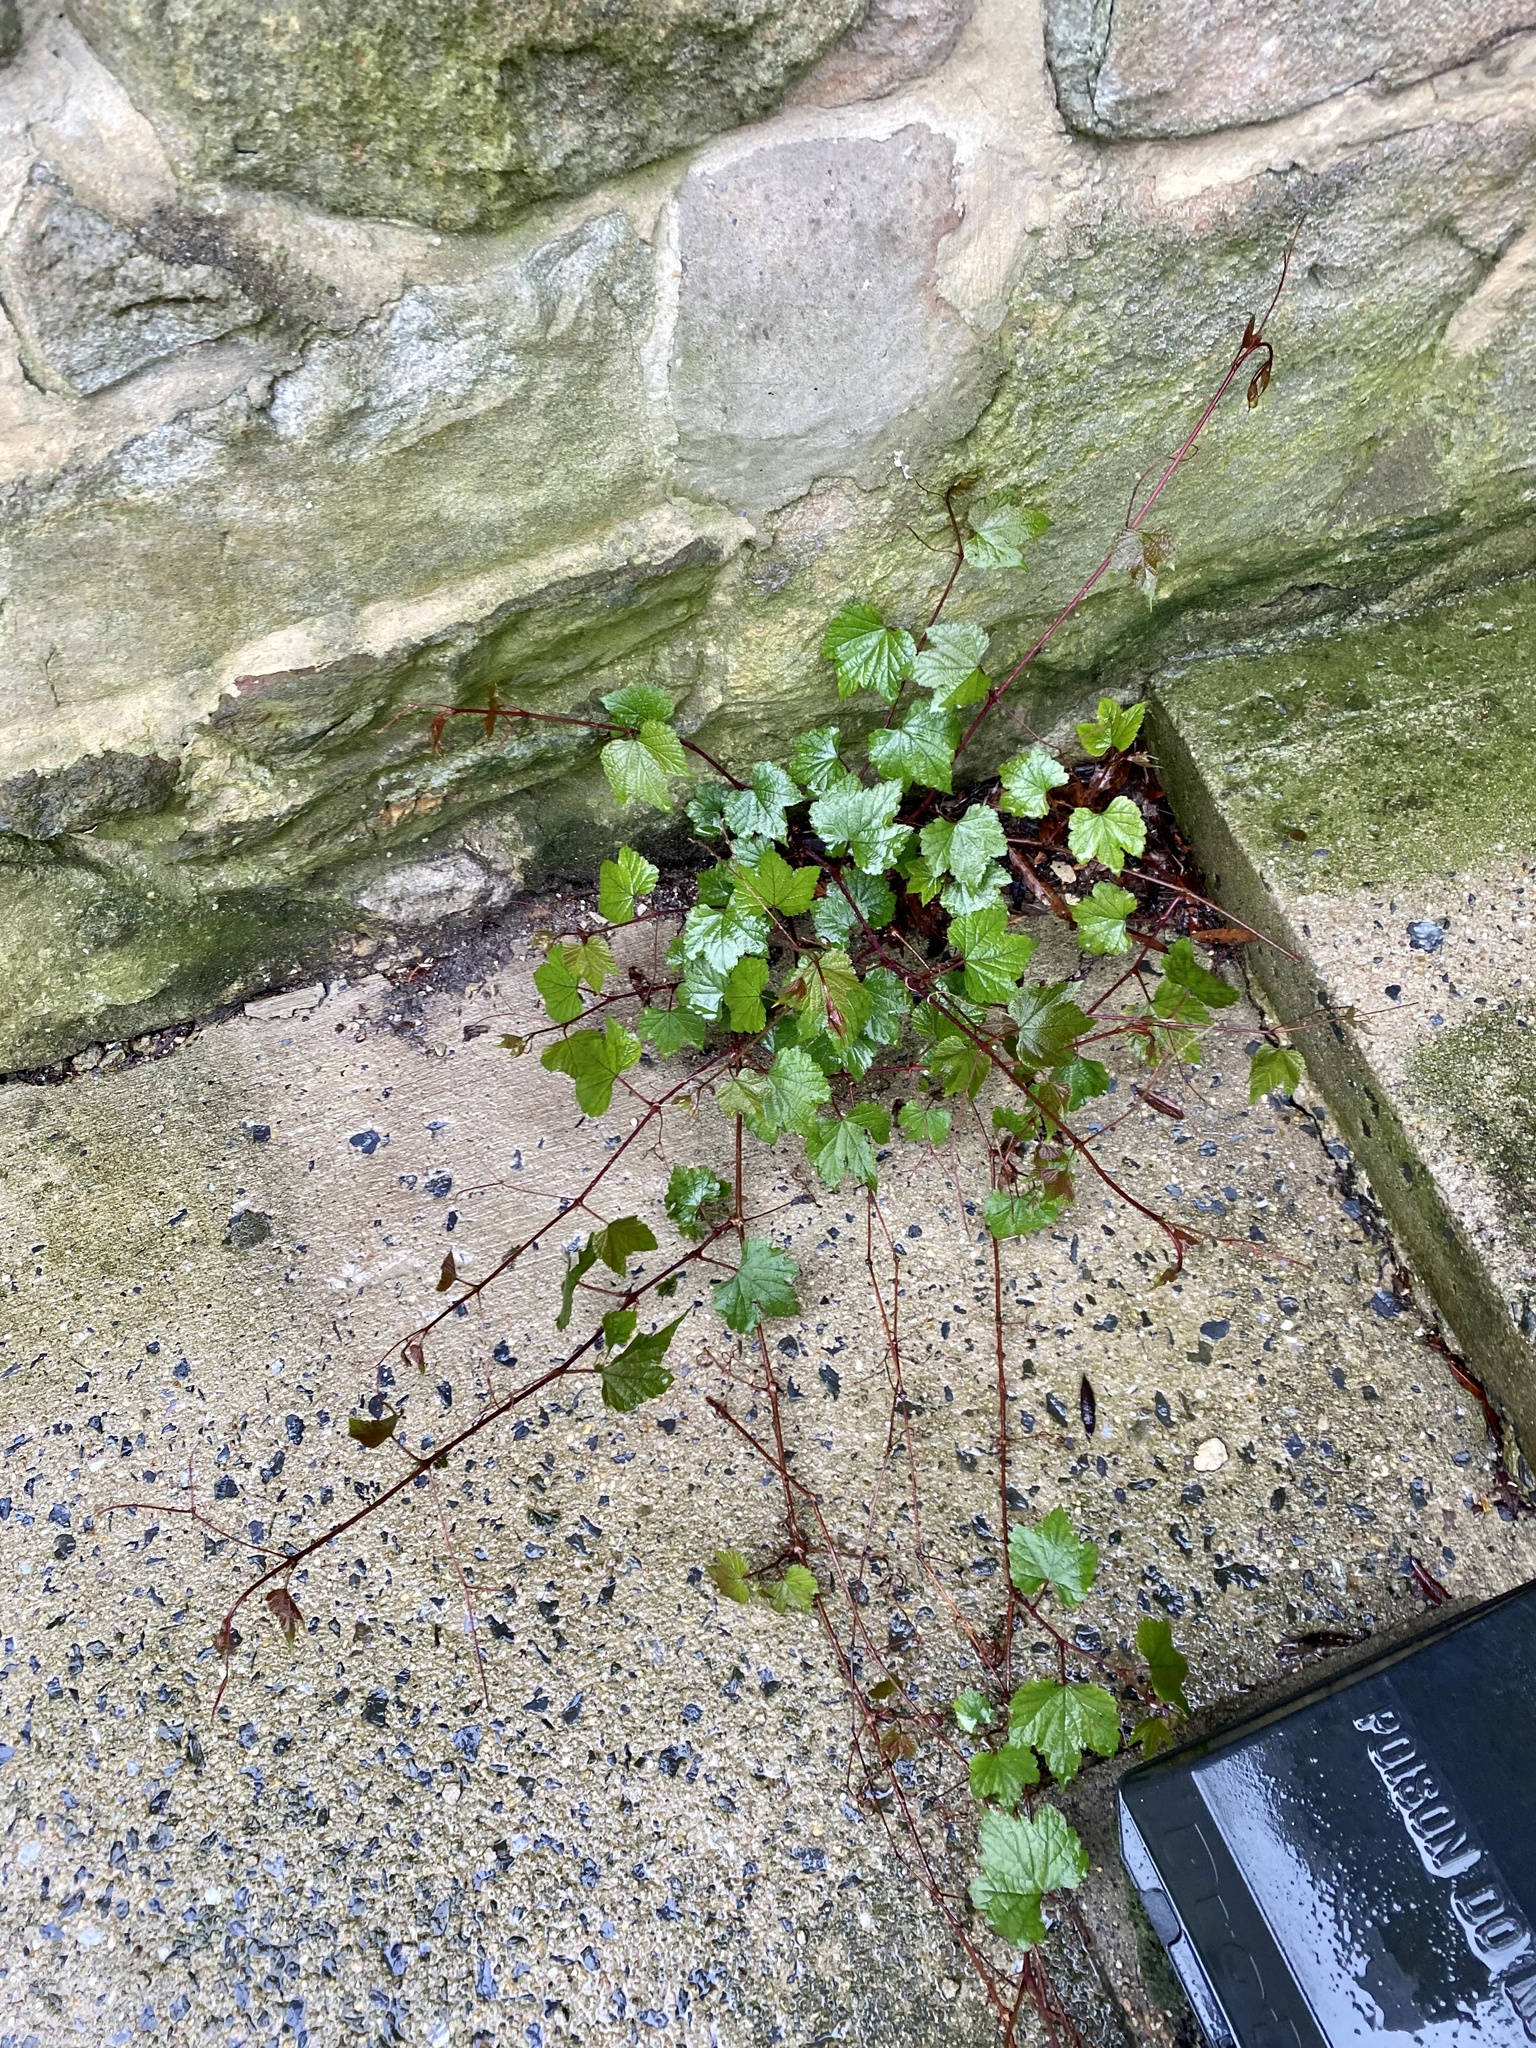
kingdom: Plantae
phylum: Tracheophyta
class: Magnoliopsida
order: Vitales
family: Vitaceae
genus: Ampelopsis
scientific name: Ampelopsis glandulosa
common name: Amur peppervine
